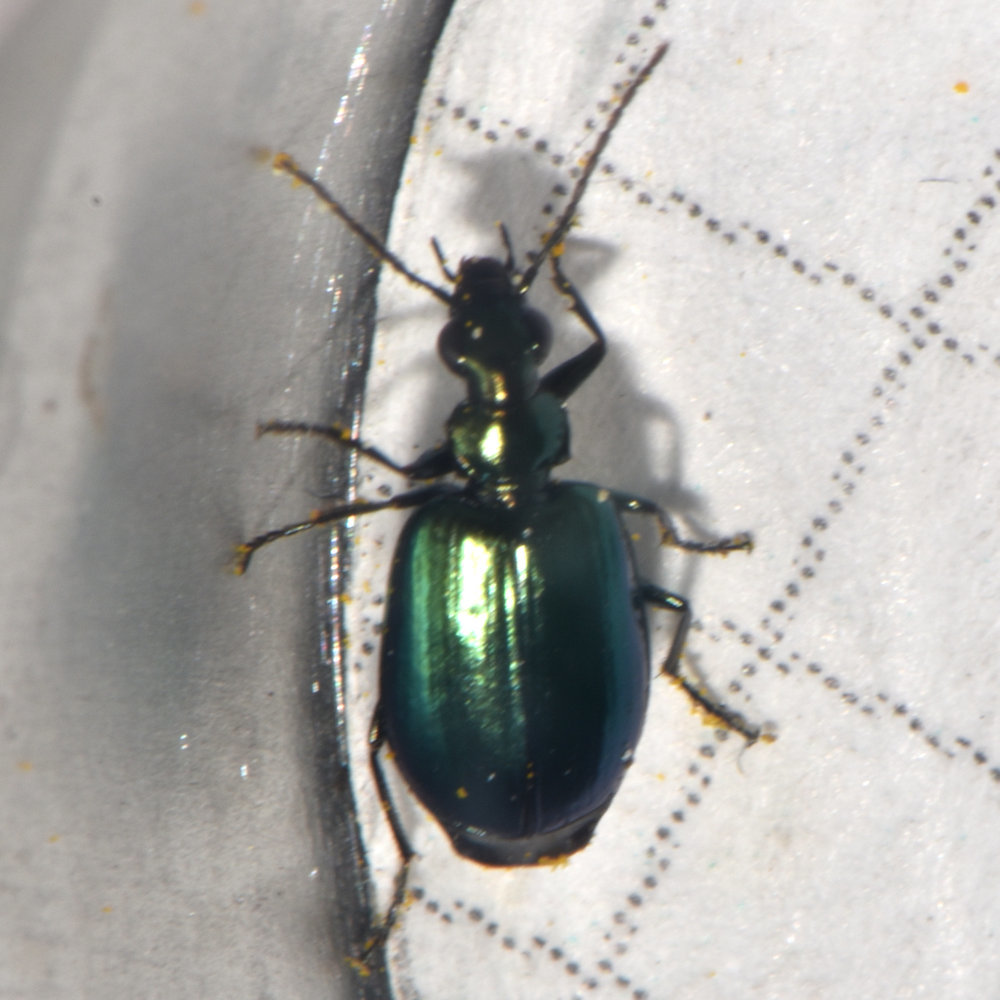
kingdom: Animalia
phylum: Arthropoda
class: Insecta
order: Coleoptera
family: Carabidae
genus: Lebia
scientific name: Lebia viridis
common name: Flower lebia beetle
